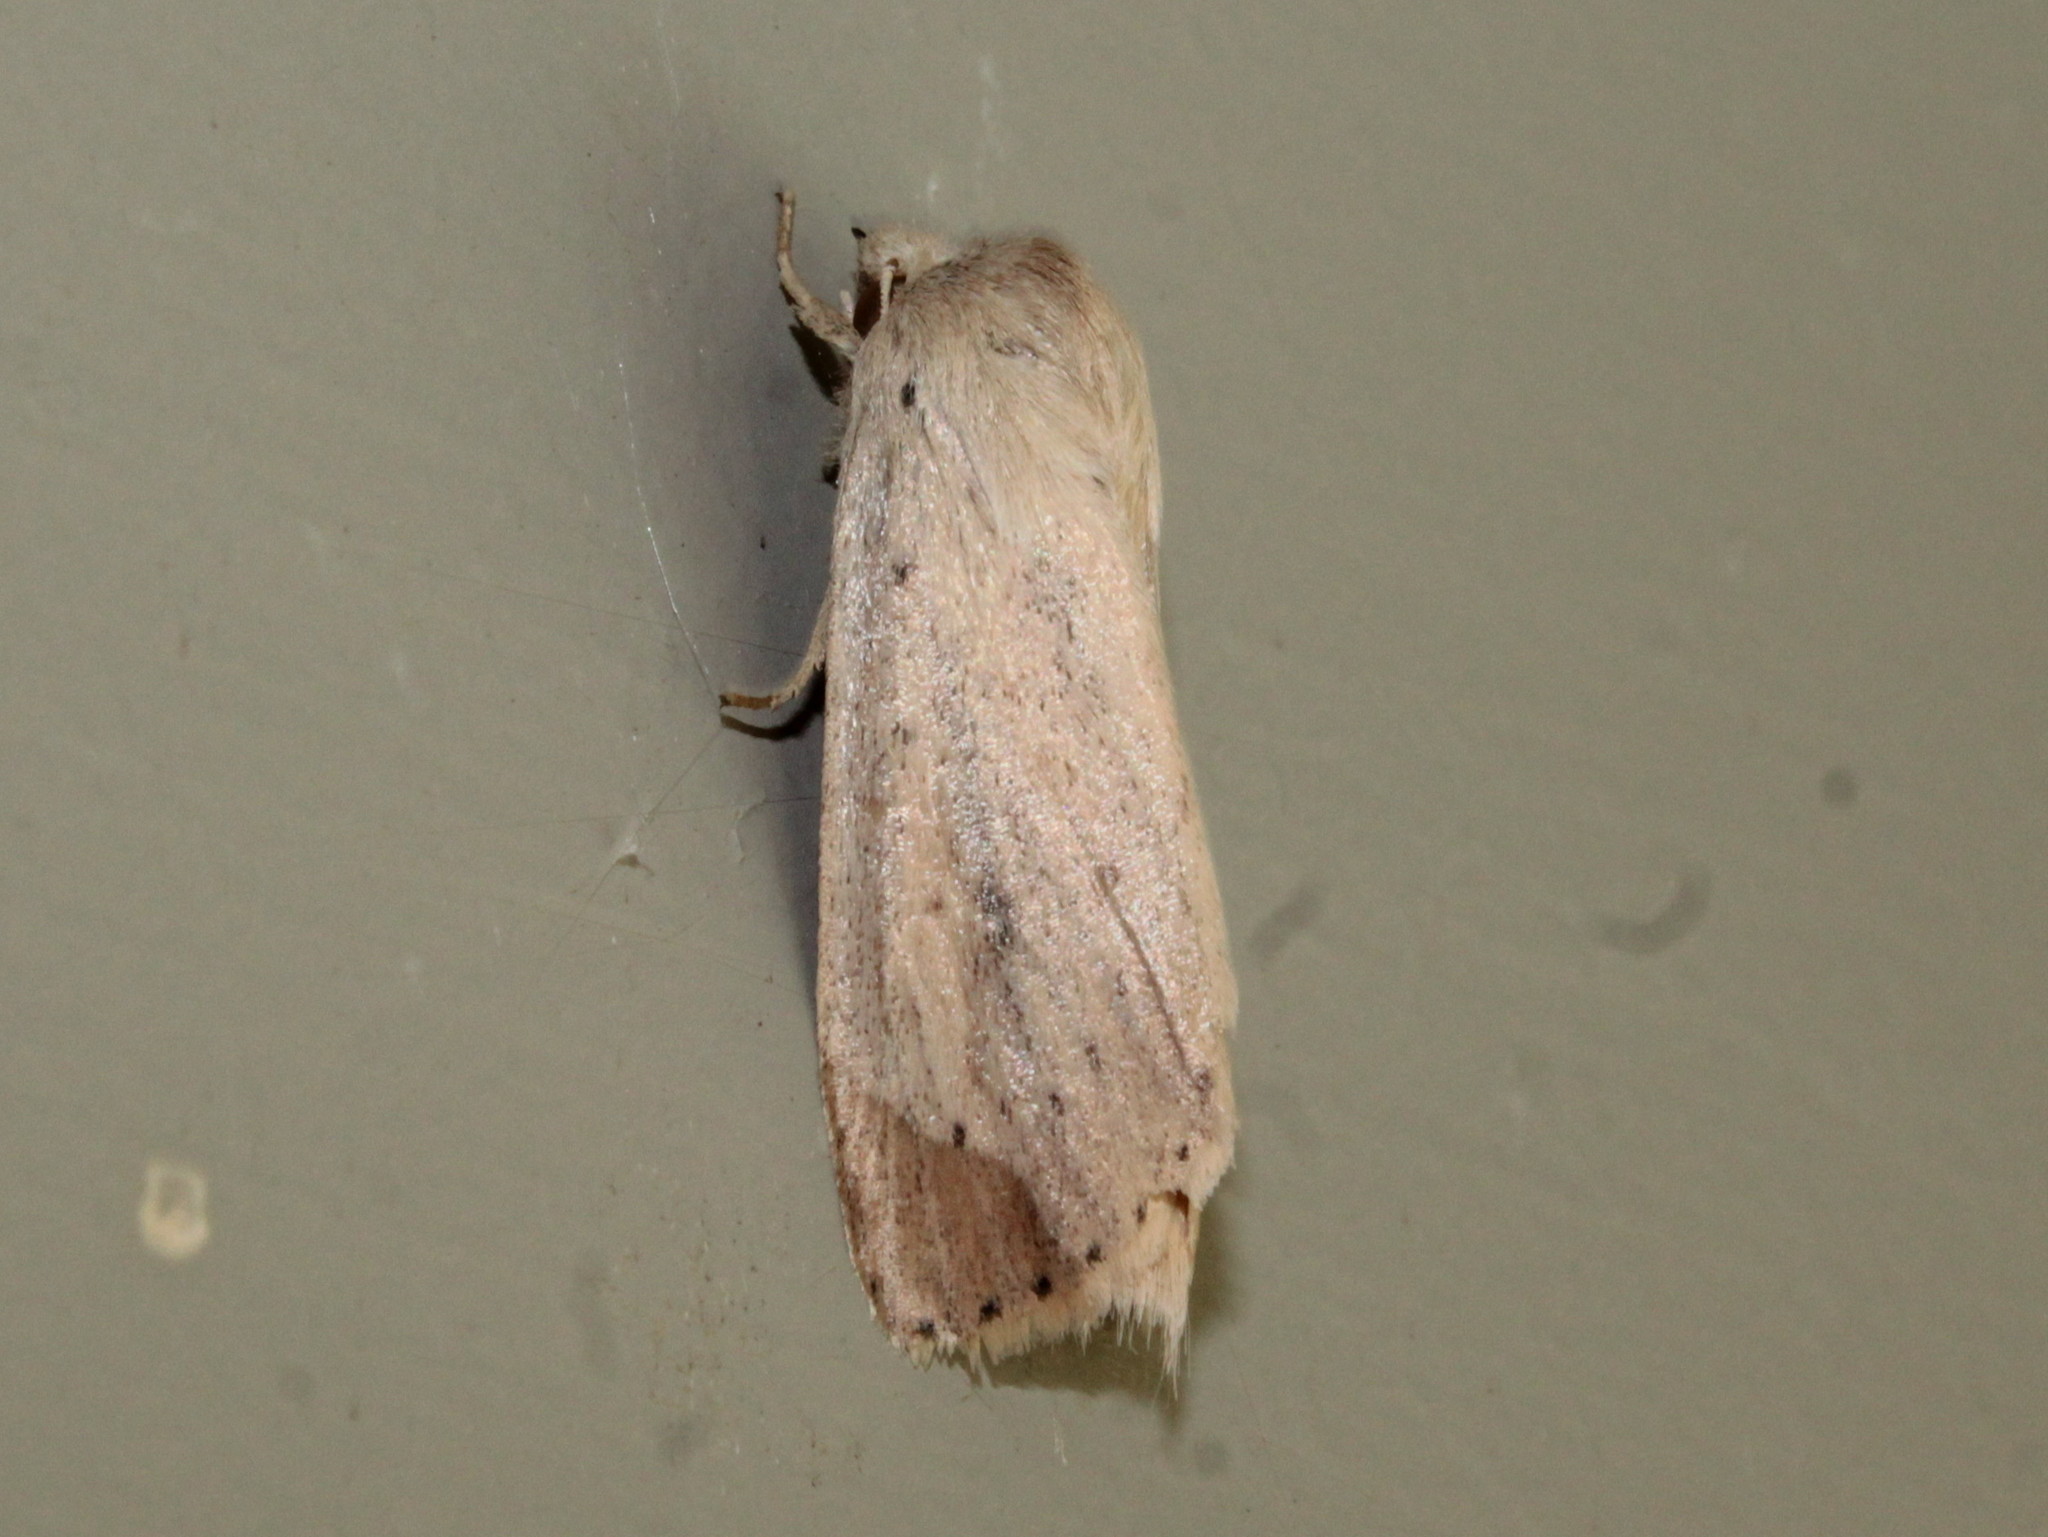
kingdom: Animalia
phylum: Arthropoda
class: Insecta
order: Lepidoptera
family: Noctuidae
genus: Globia
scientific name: Globia oblonga
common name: Oblong sedge borer moth
